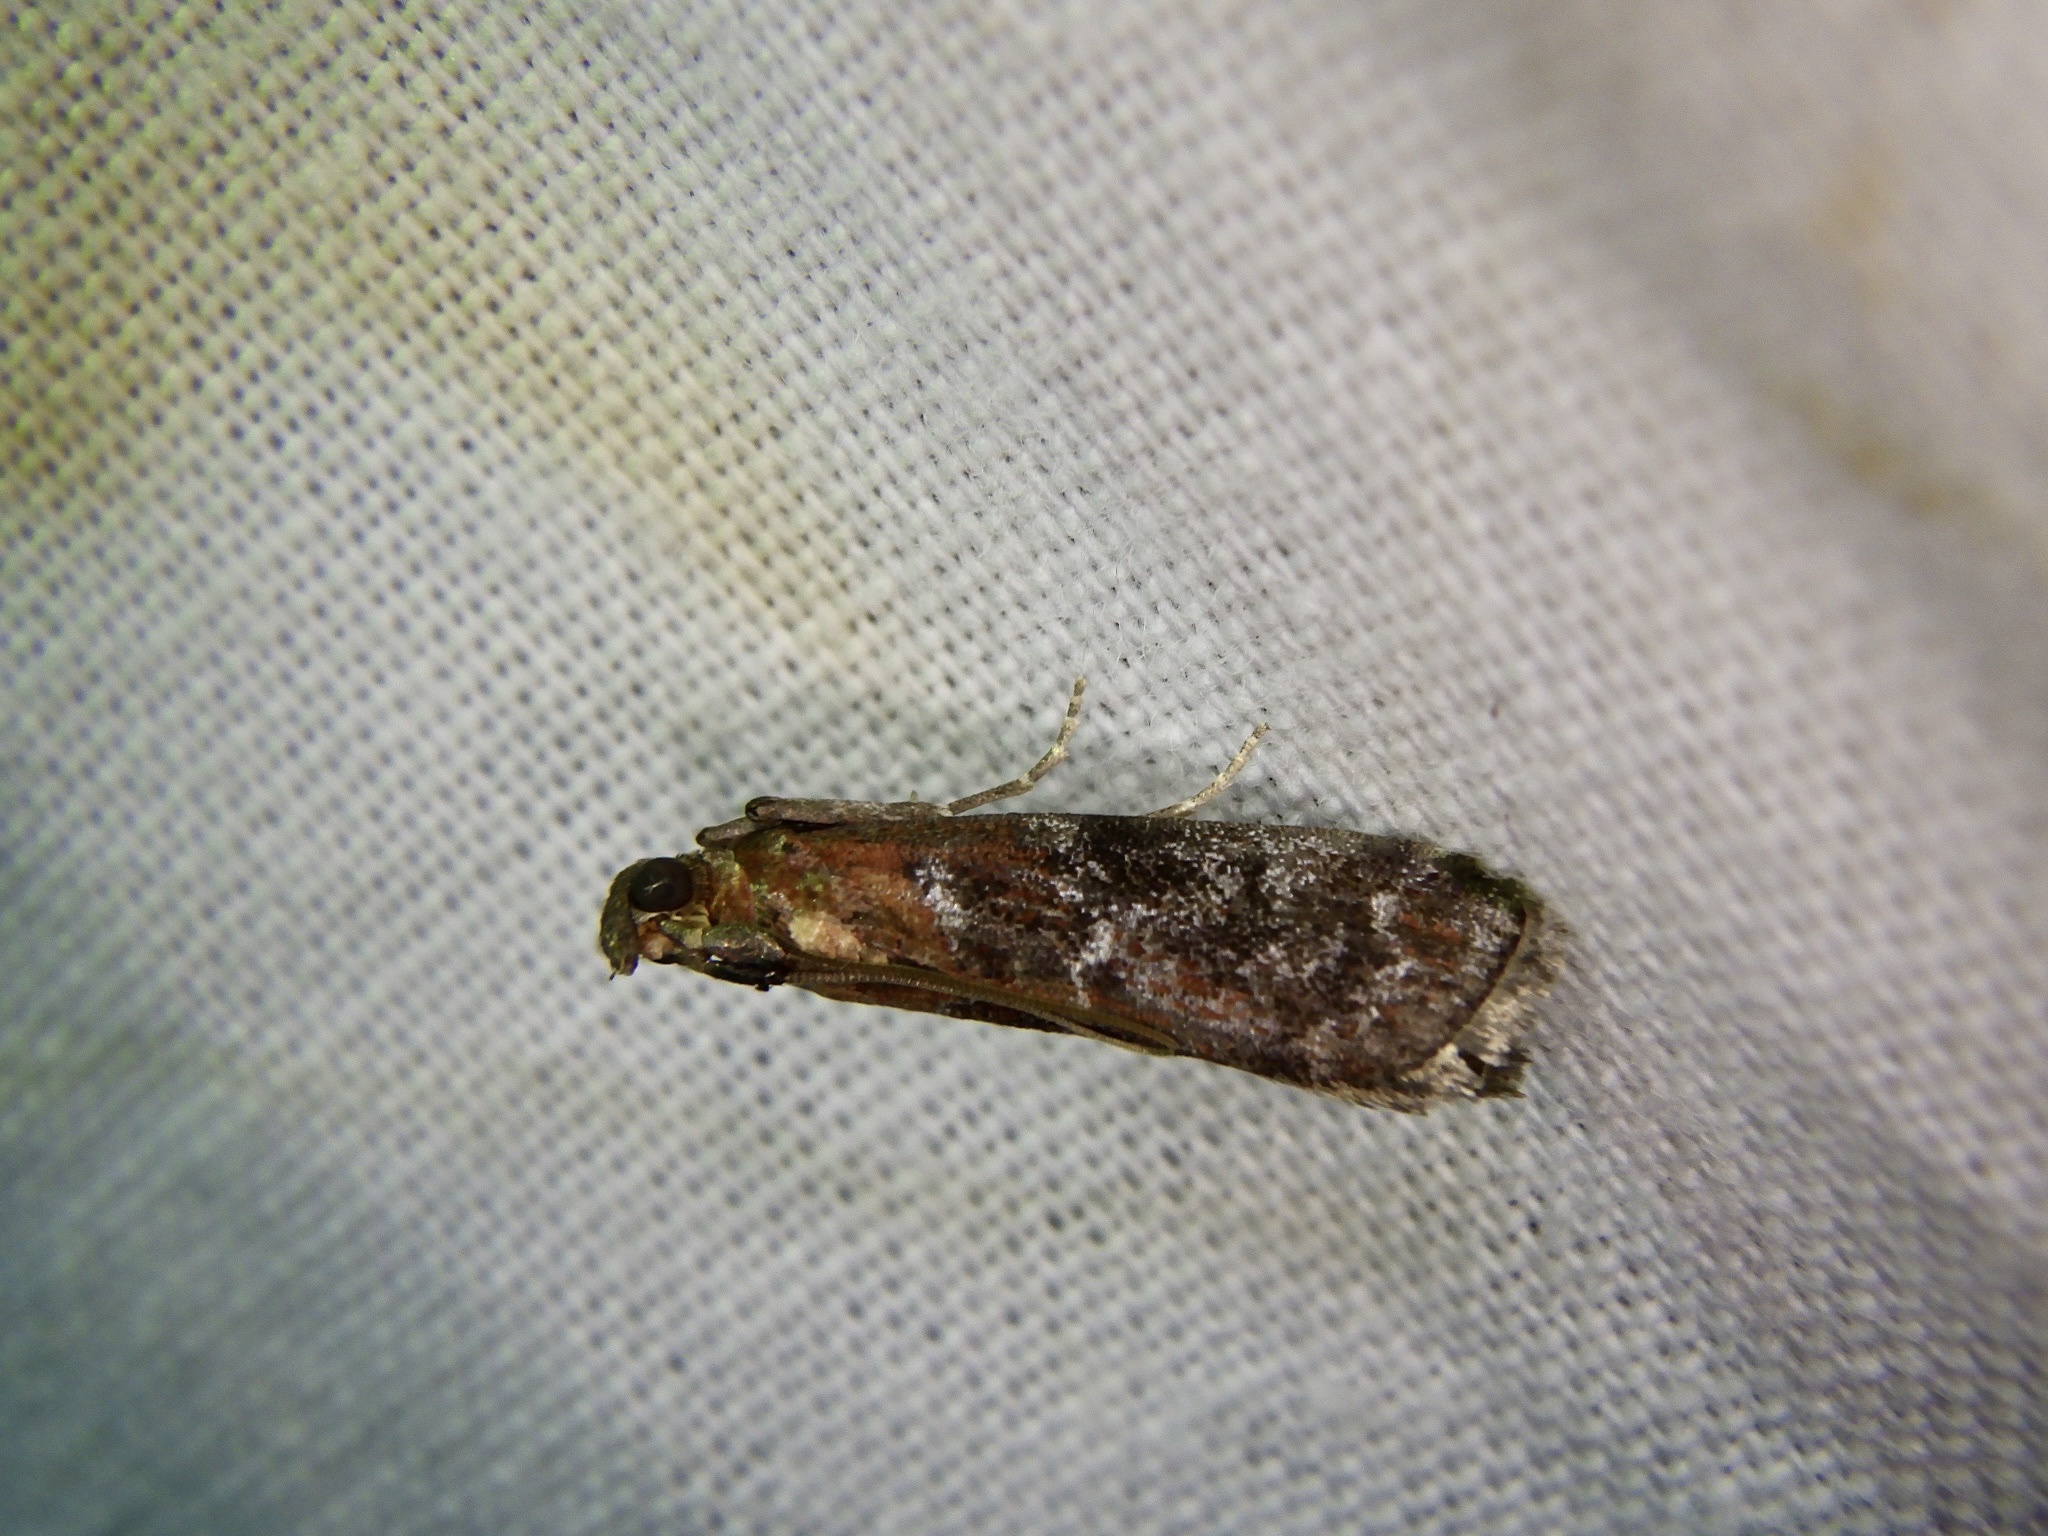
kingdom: Animalia
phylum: Arthropoda
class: Insecta
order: Lepidoptera
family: Pyralidae
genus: Pyla
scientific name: Pyla manifestella
